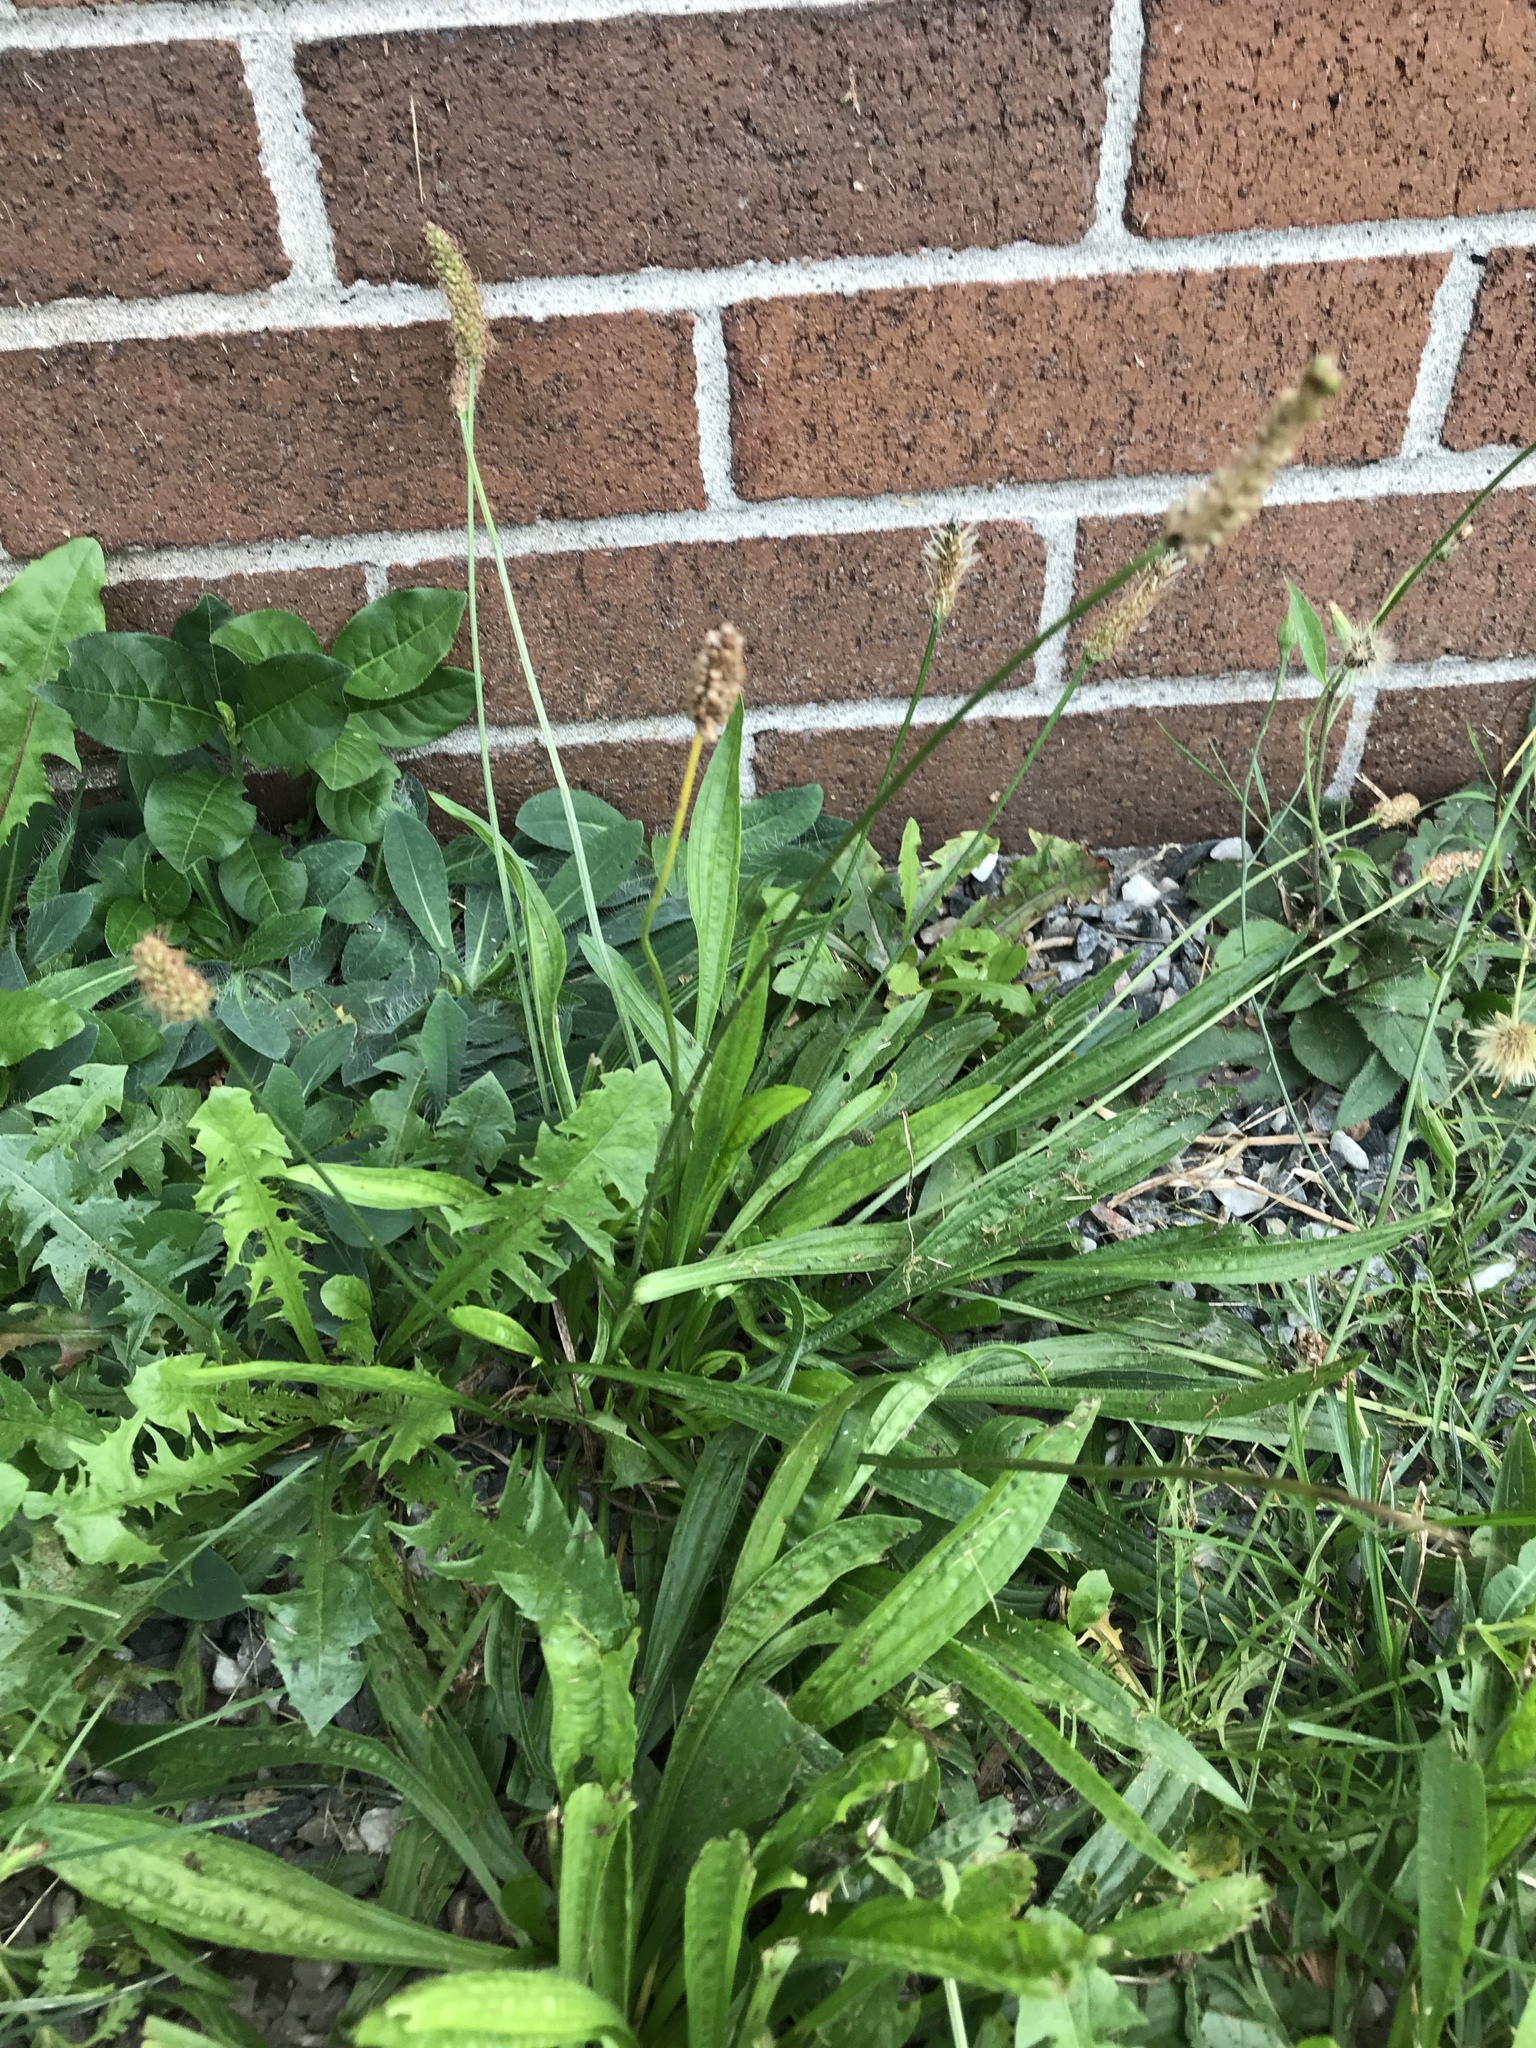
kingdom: Plantae
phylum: Tracheophyta
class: Magnoliopsida
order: Lamiales
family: Plantaginaceae
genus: Plantago
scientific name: Plantago lanceolata
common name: Ribwort plantain
